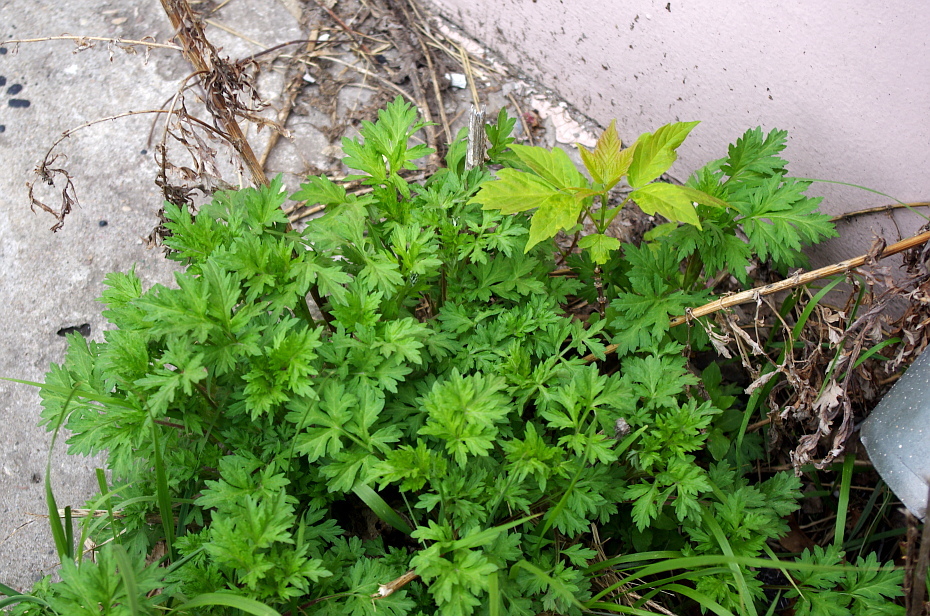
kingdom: Plantae
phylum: Tracheophyta
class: Magnoliopsida
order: Asterales
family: Asteraceae
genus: Artemisia
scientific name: Artemisia vulgaris
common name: Mugwort
